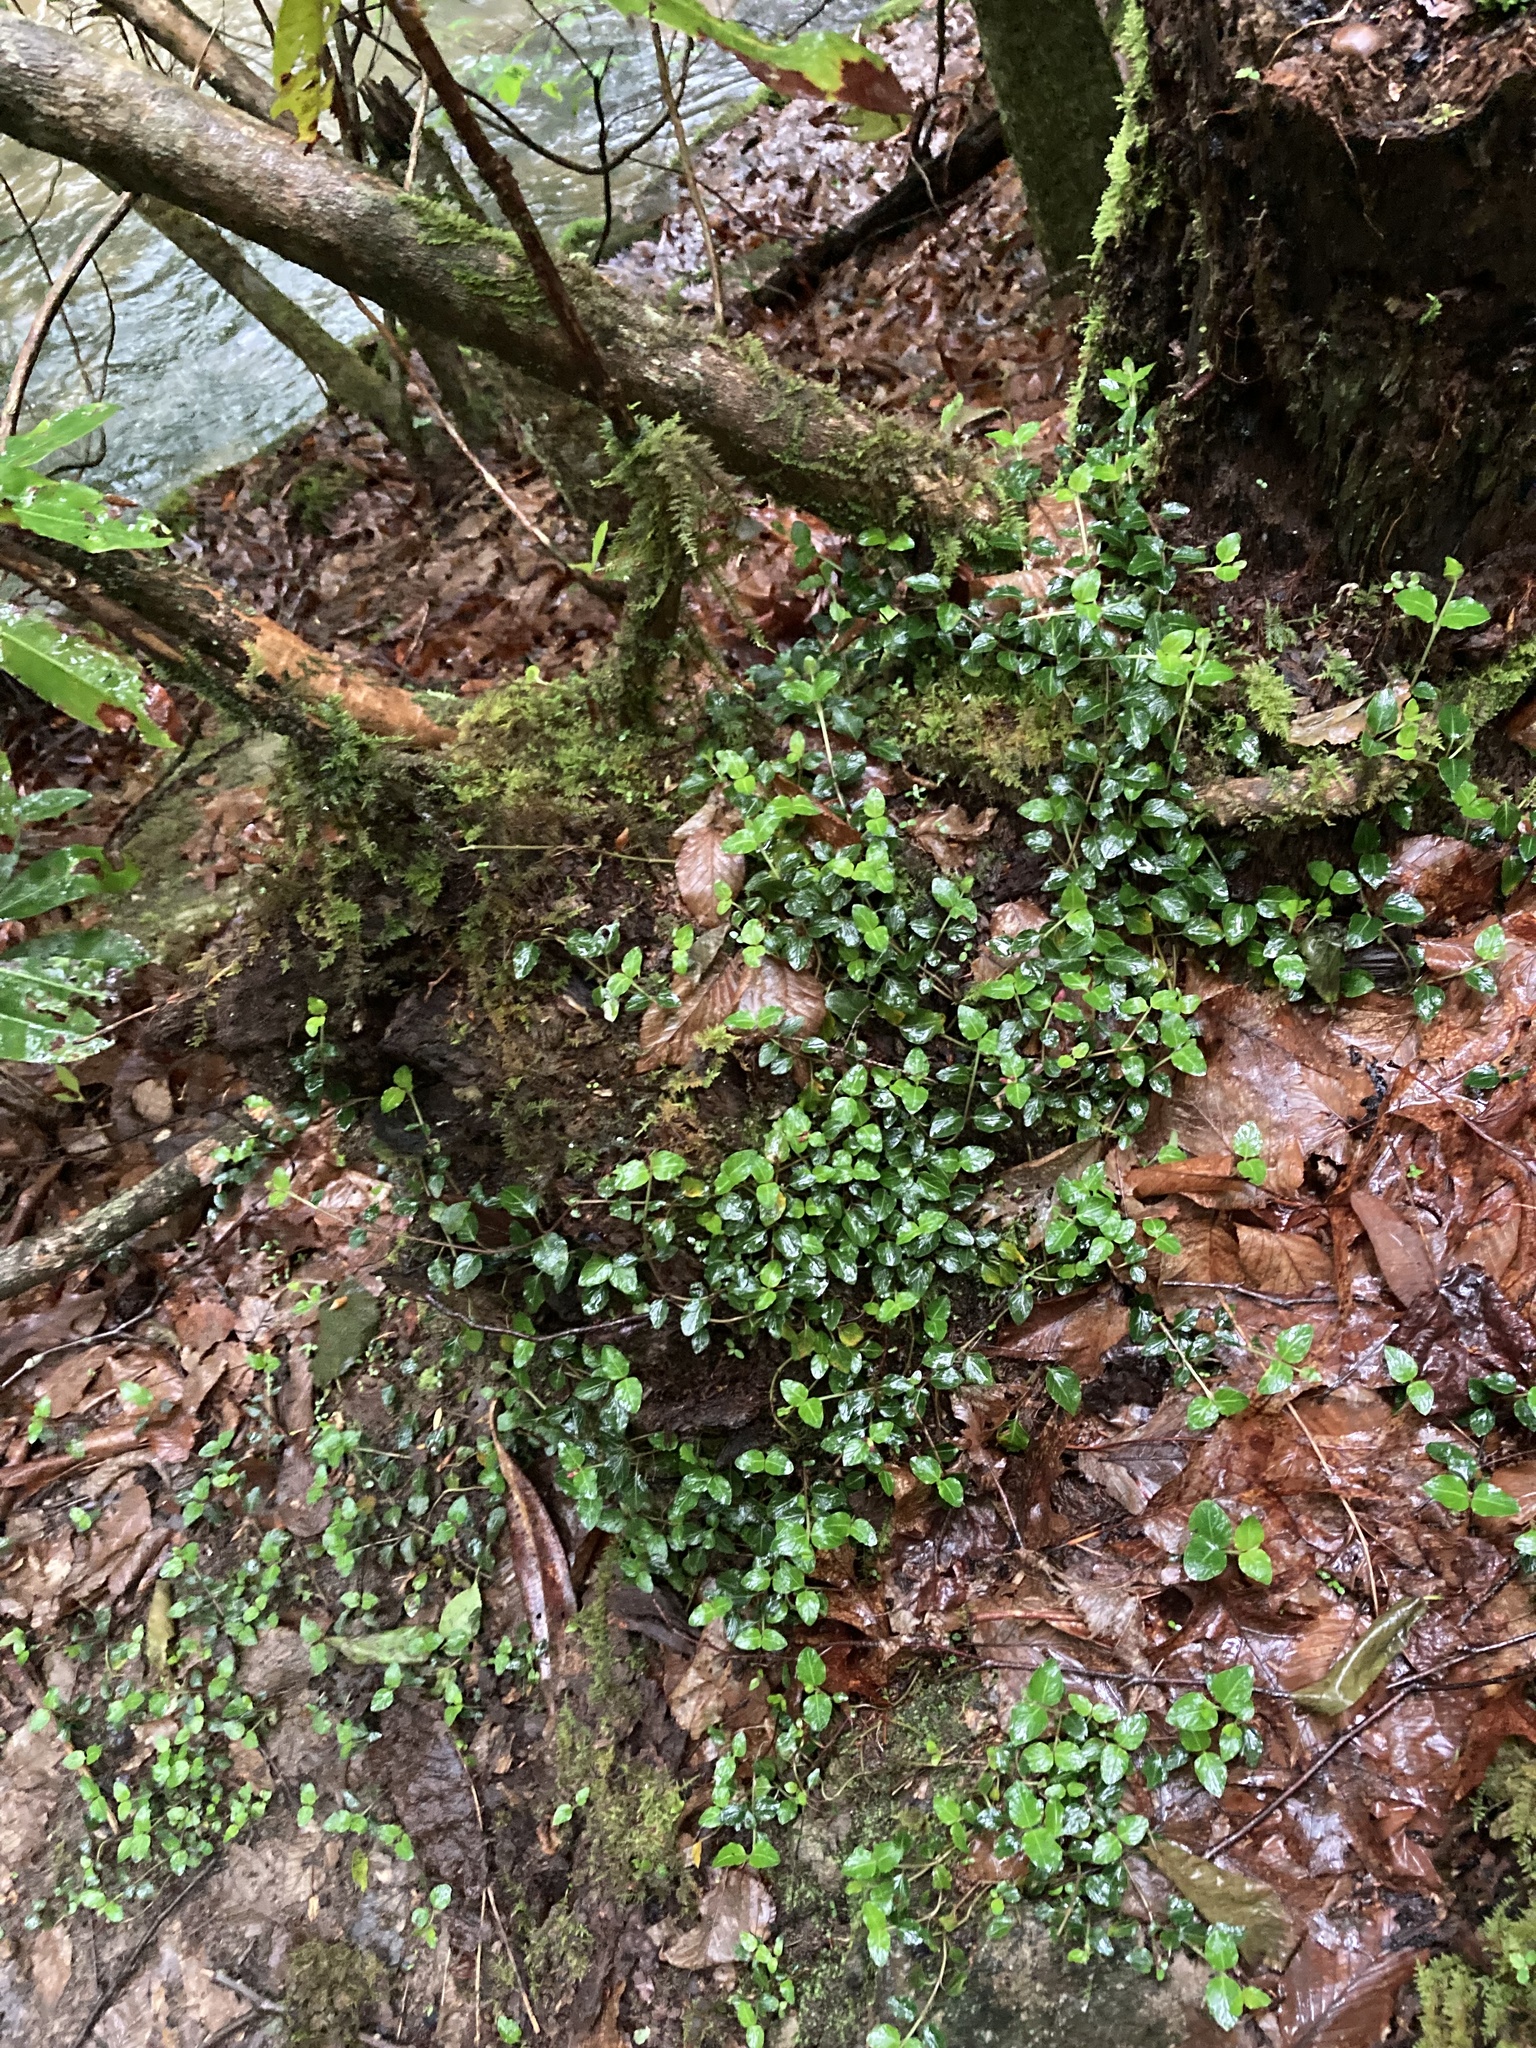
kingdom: Plantae
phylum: Tracheophyta
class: Magnoliopsida
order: Gentianales
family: Rubiaceae
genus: Mitchella
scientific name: Mitchella repens
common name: Partridge-berry
